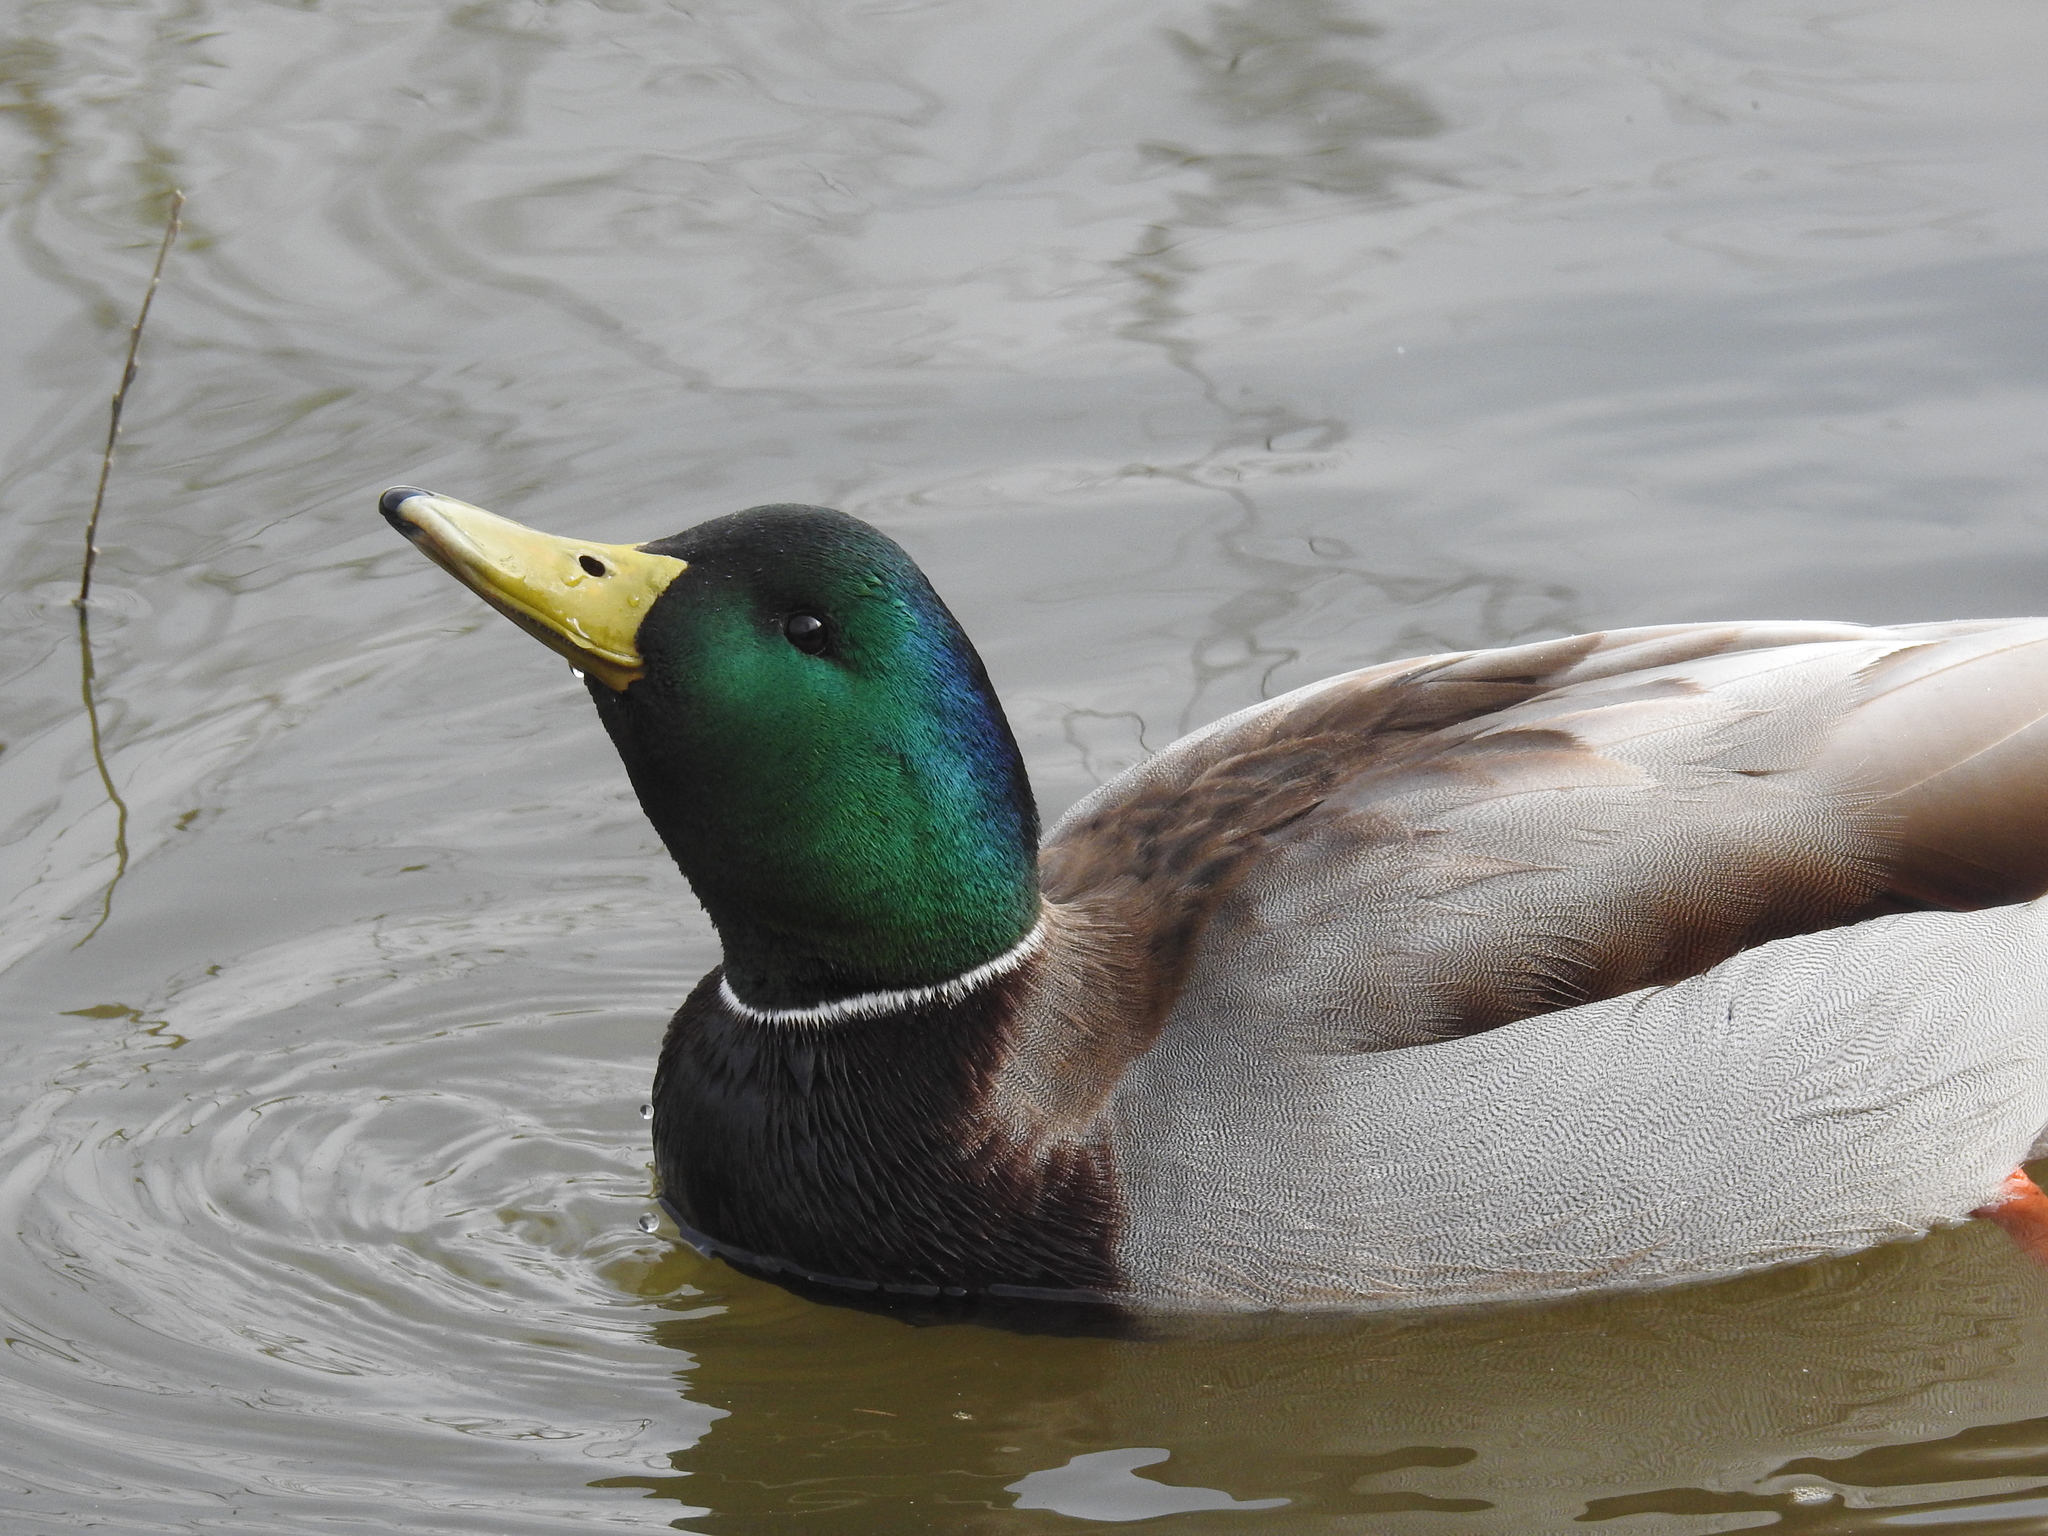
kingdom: Animalia
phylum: Chordata
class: Aves
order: Anseriformes
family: Anatidae
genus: Anas
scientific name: Anas platyrhynchos
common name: Mallard
